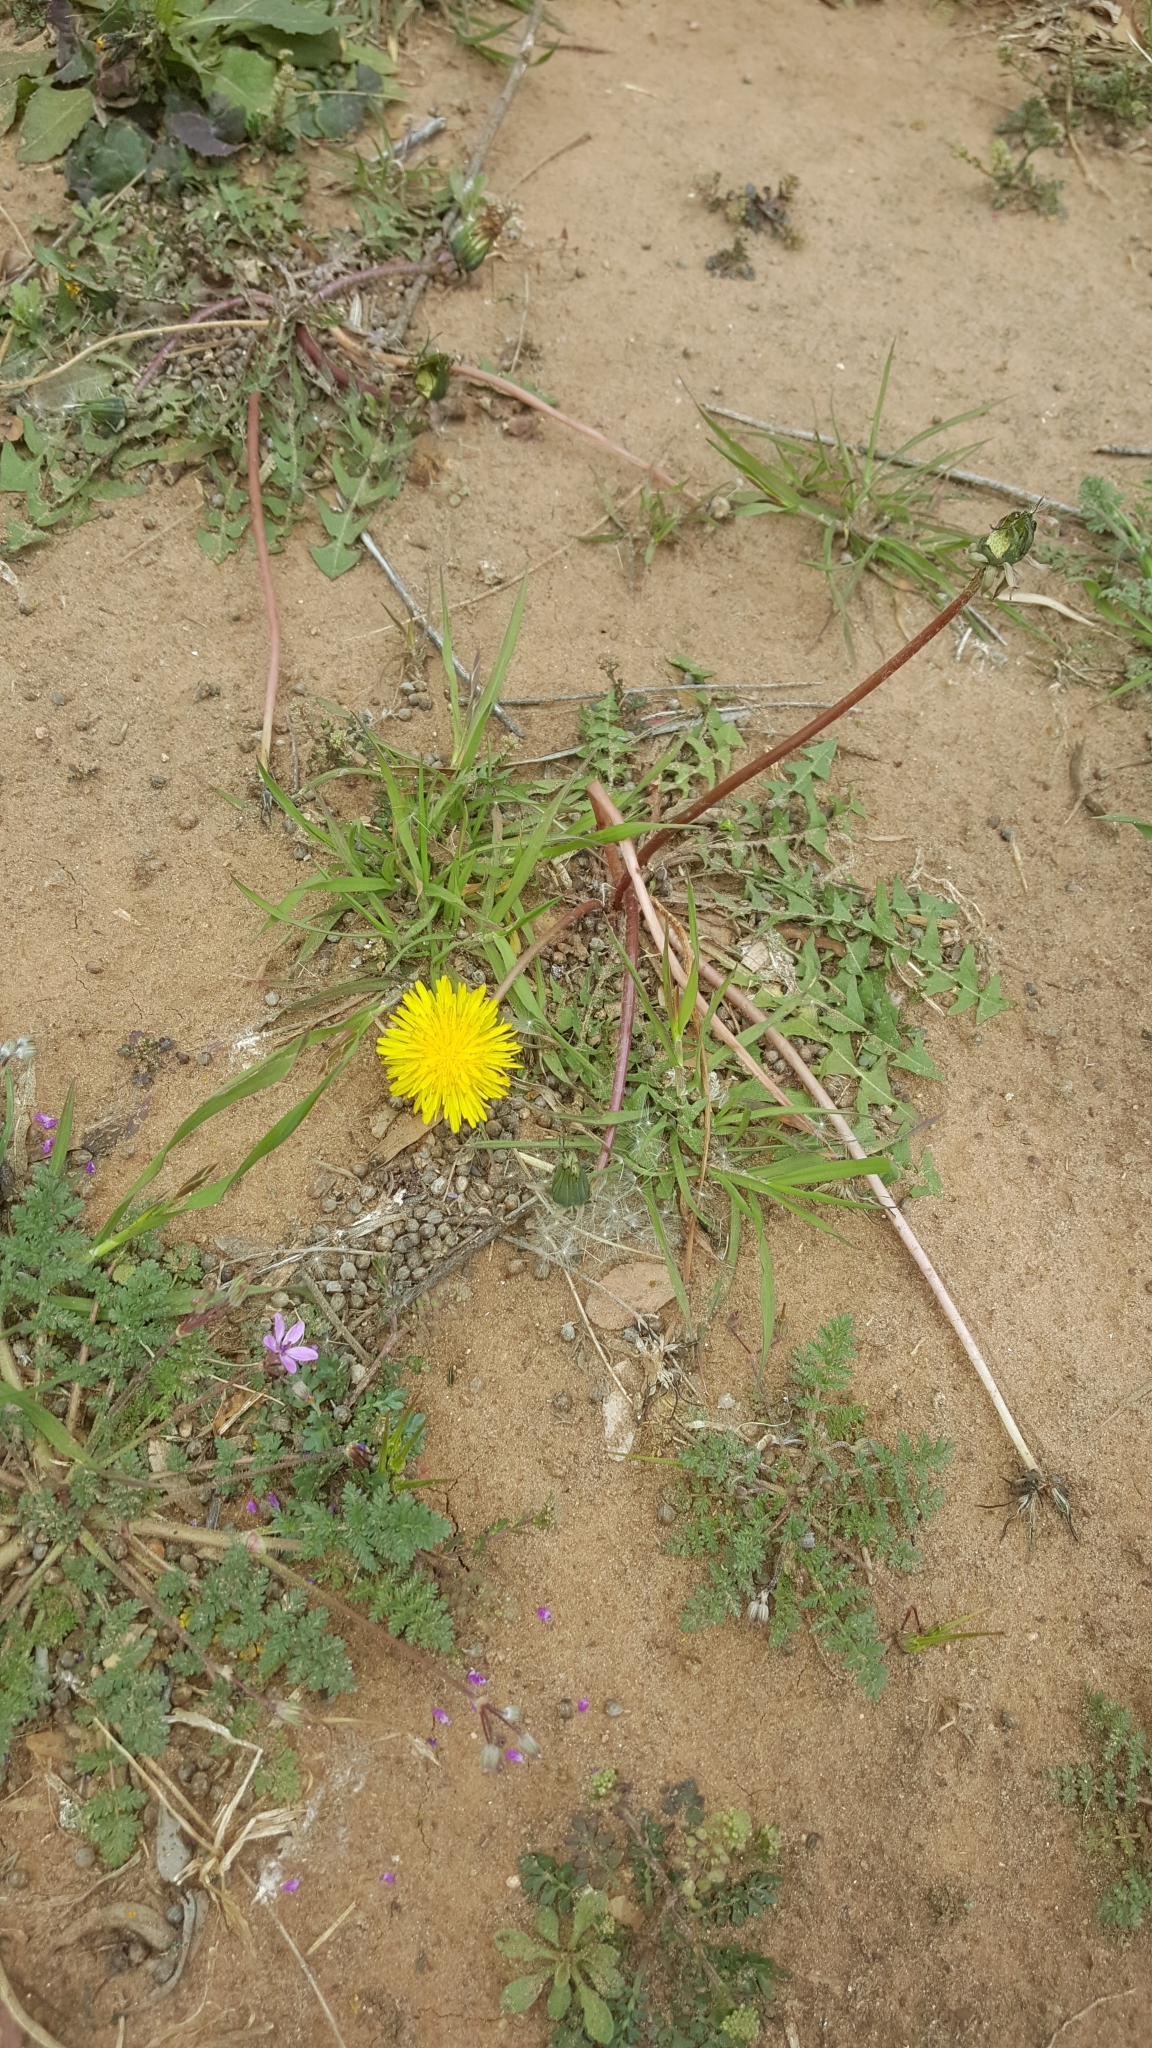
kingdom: Plantae
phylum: Tracheophyta
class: Magnoliopsida
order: Asterales
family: Asteraceae
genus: Taraxacum
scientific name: Taraxacum officinale
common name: Common dandelion
